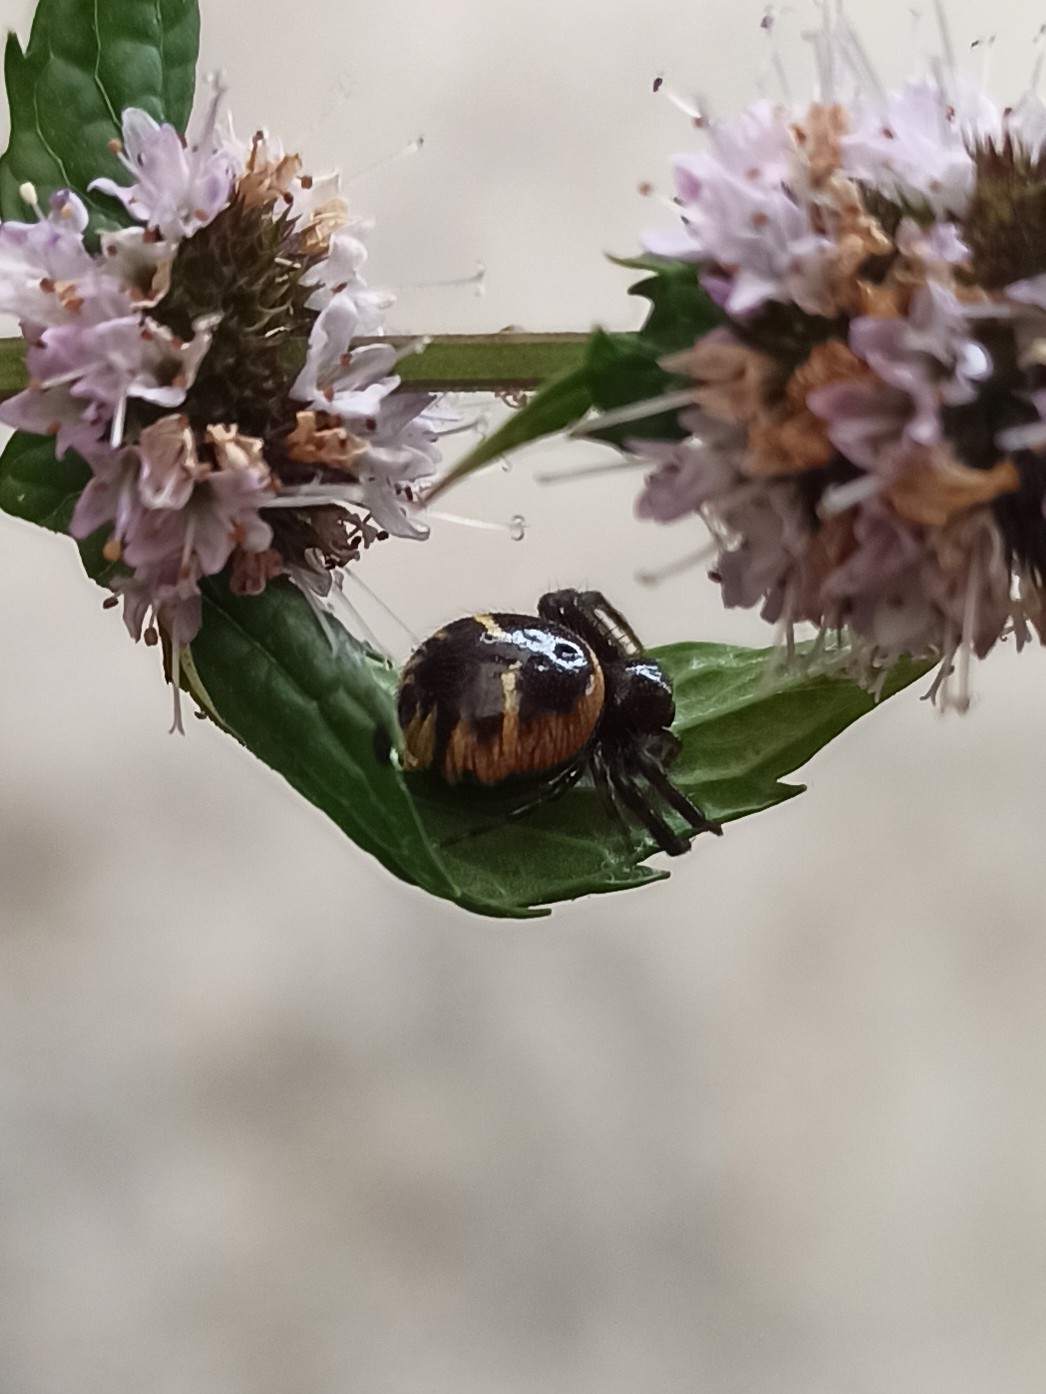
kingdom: Animalia
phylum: Arthropoda
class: Arachnida
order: Araneae
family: Thomisidae
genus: Synema
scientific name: Synema globosum
